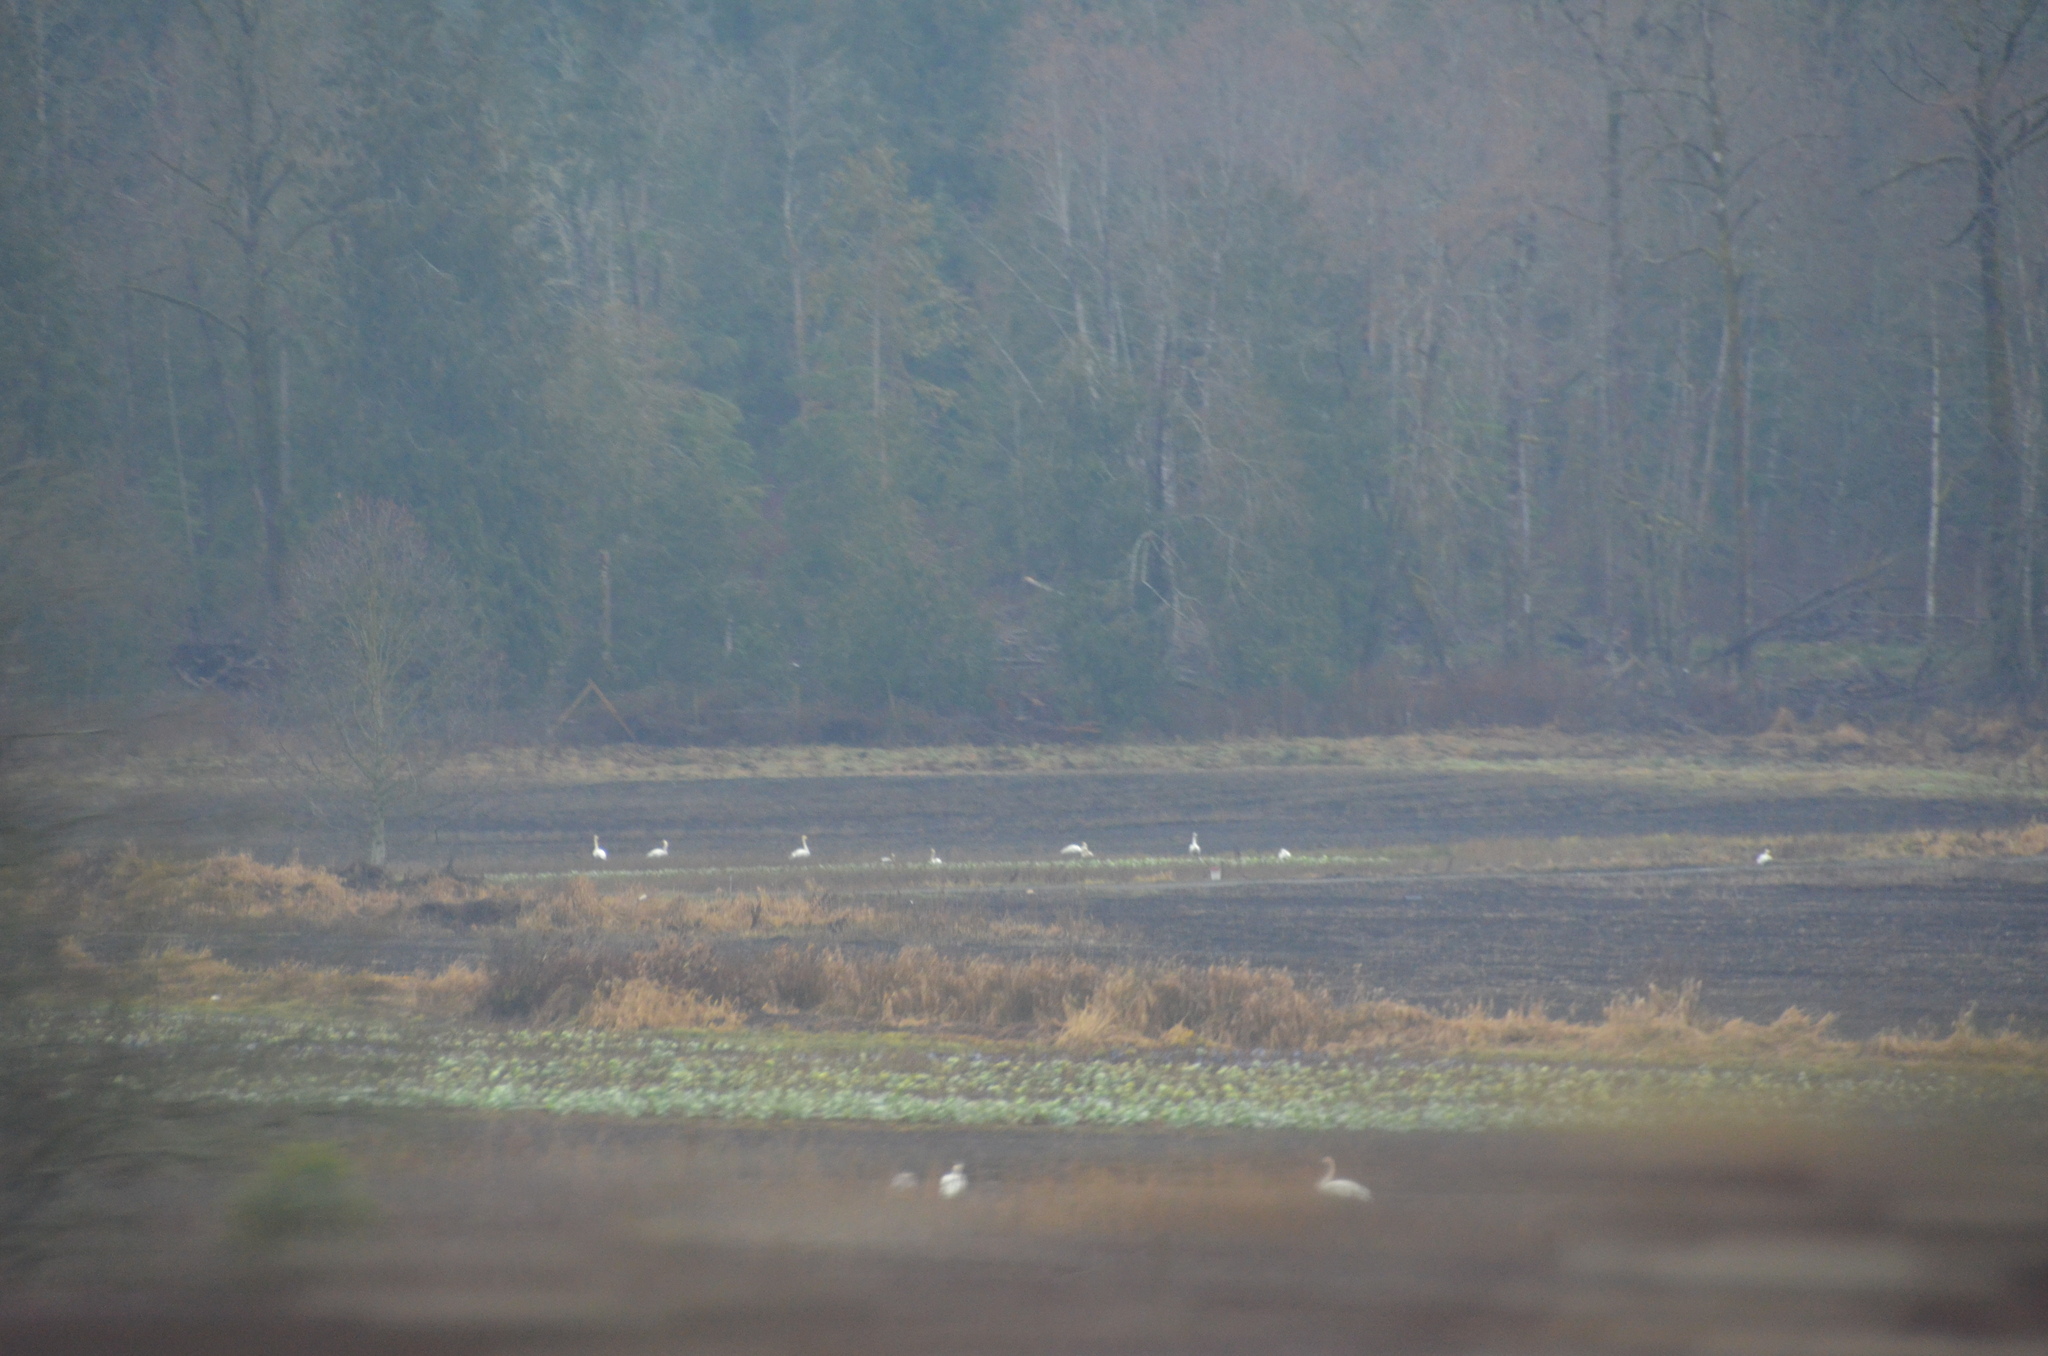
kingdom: Animalia
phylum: Chordata
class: Aves
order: Anseriformes
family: Anatidae
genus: Cygnus
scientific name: Cygnus buccinator
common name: Trumpeter swan
